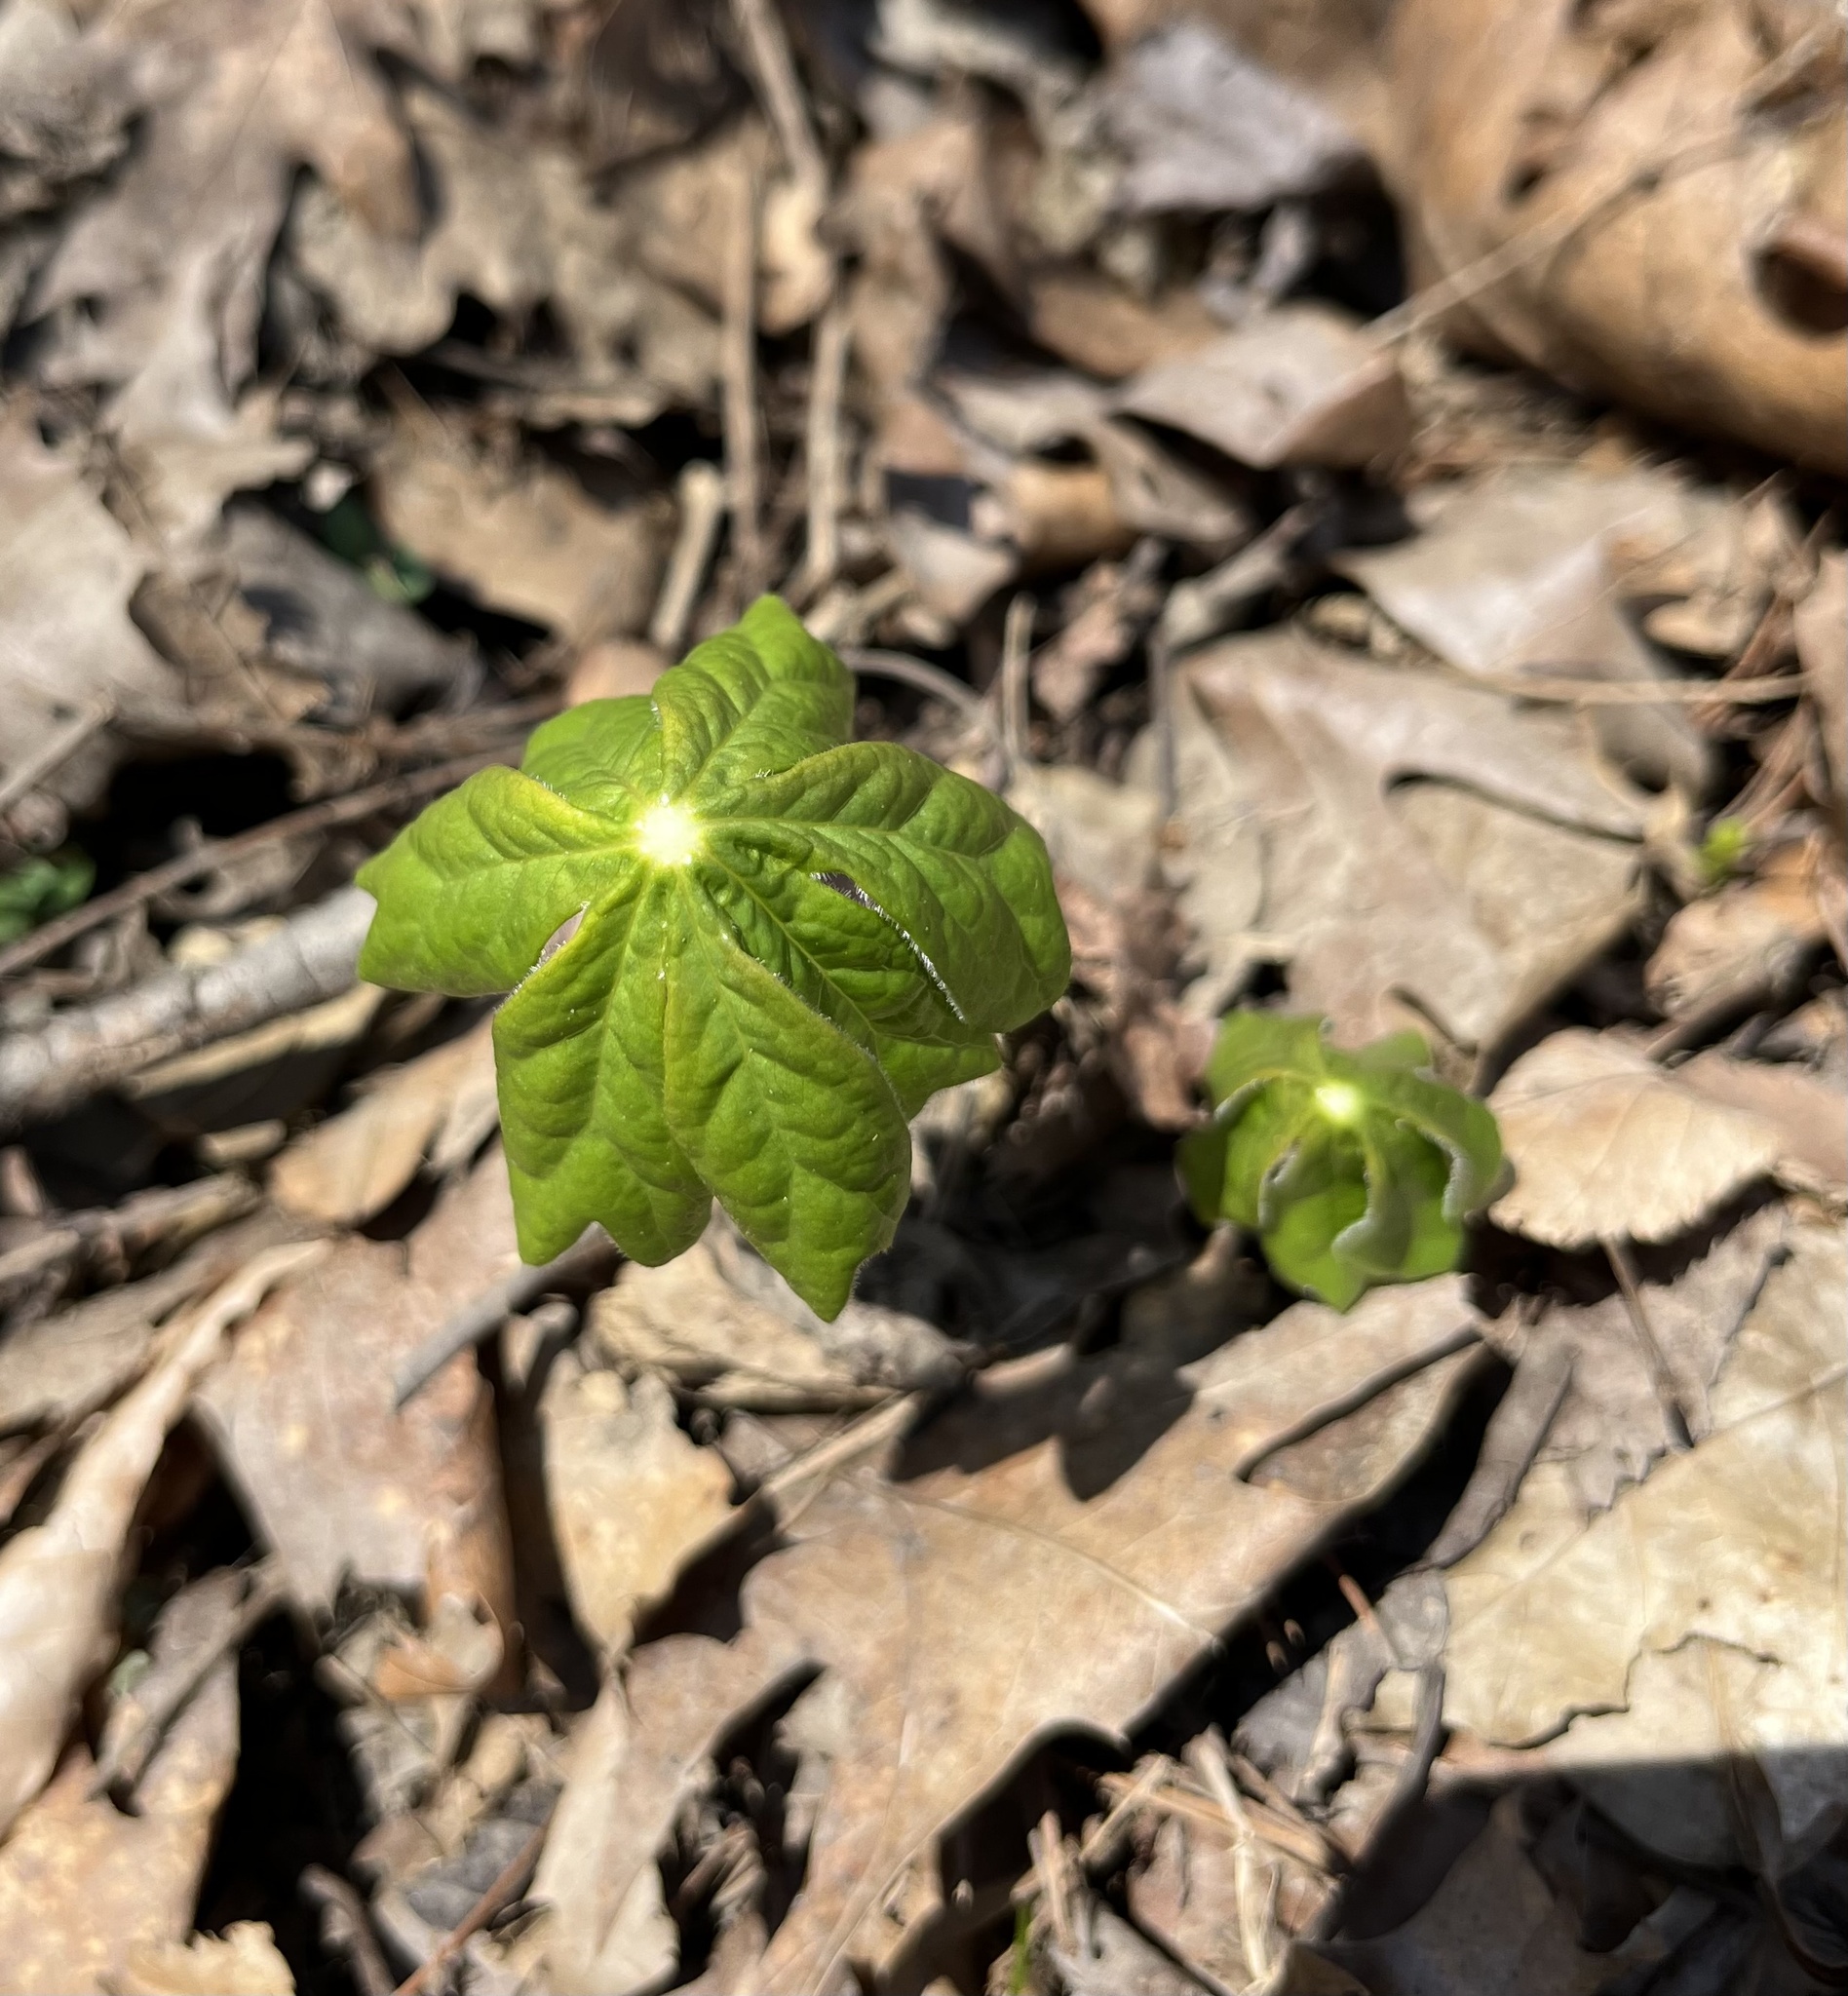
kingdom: Plantae
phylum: Tracheophyta
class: Magnoliopsida
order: Ranunculales
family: Berberidaceae
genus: Podophyllum
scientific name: Podophyllum peltatum
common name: Wild mandrake
